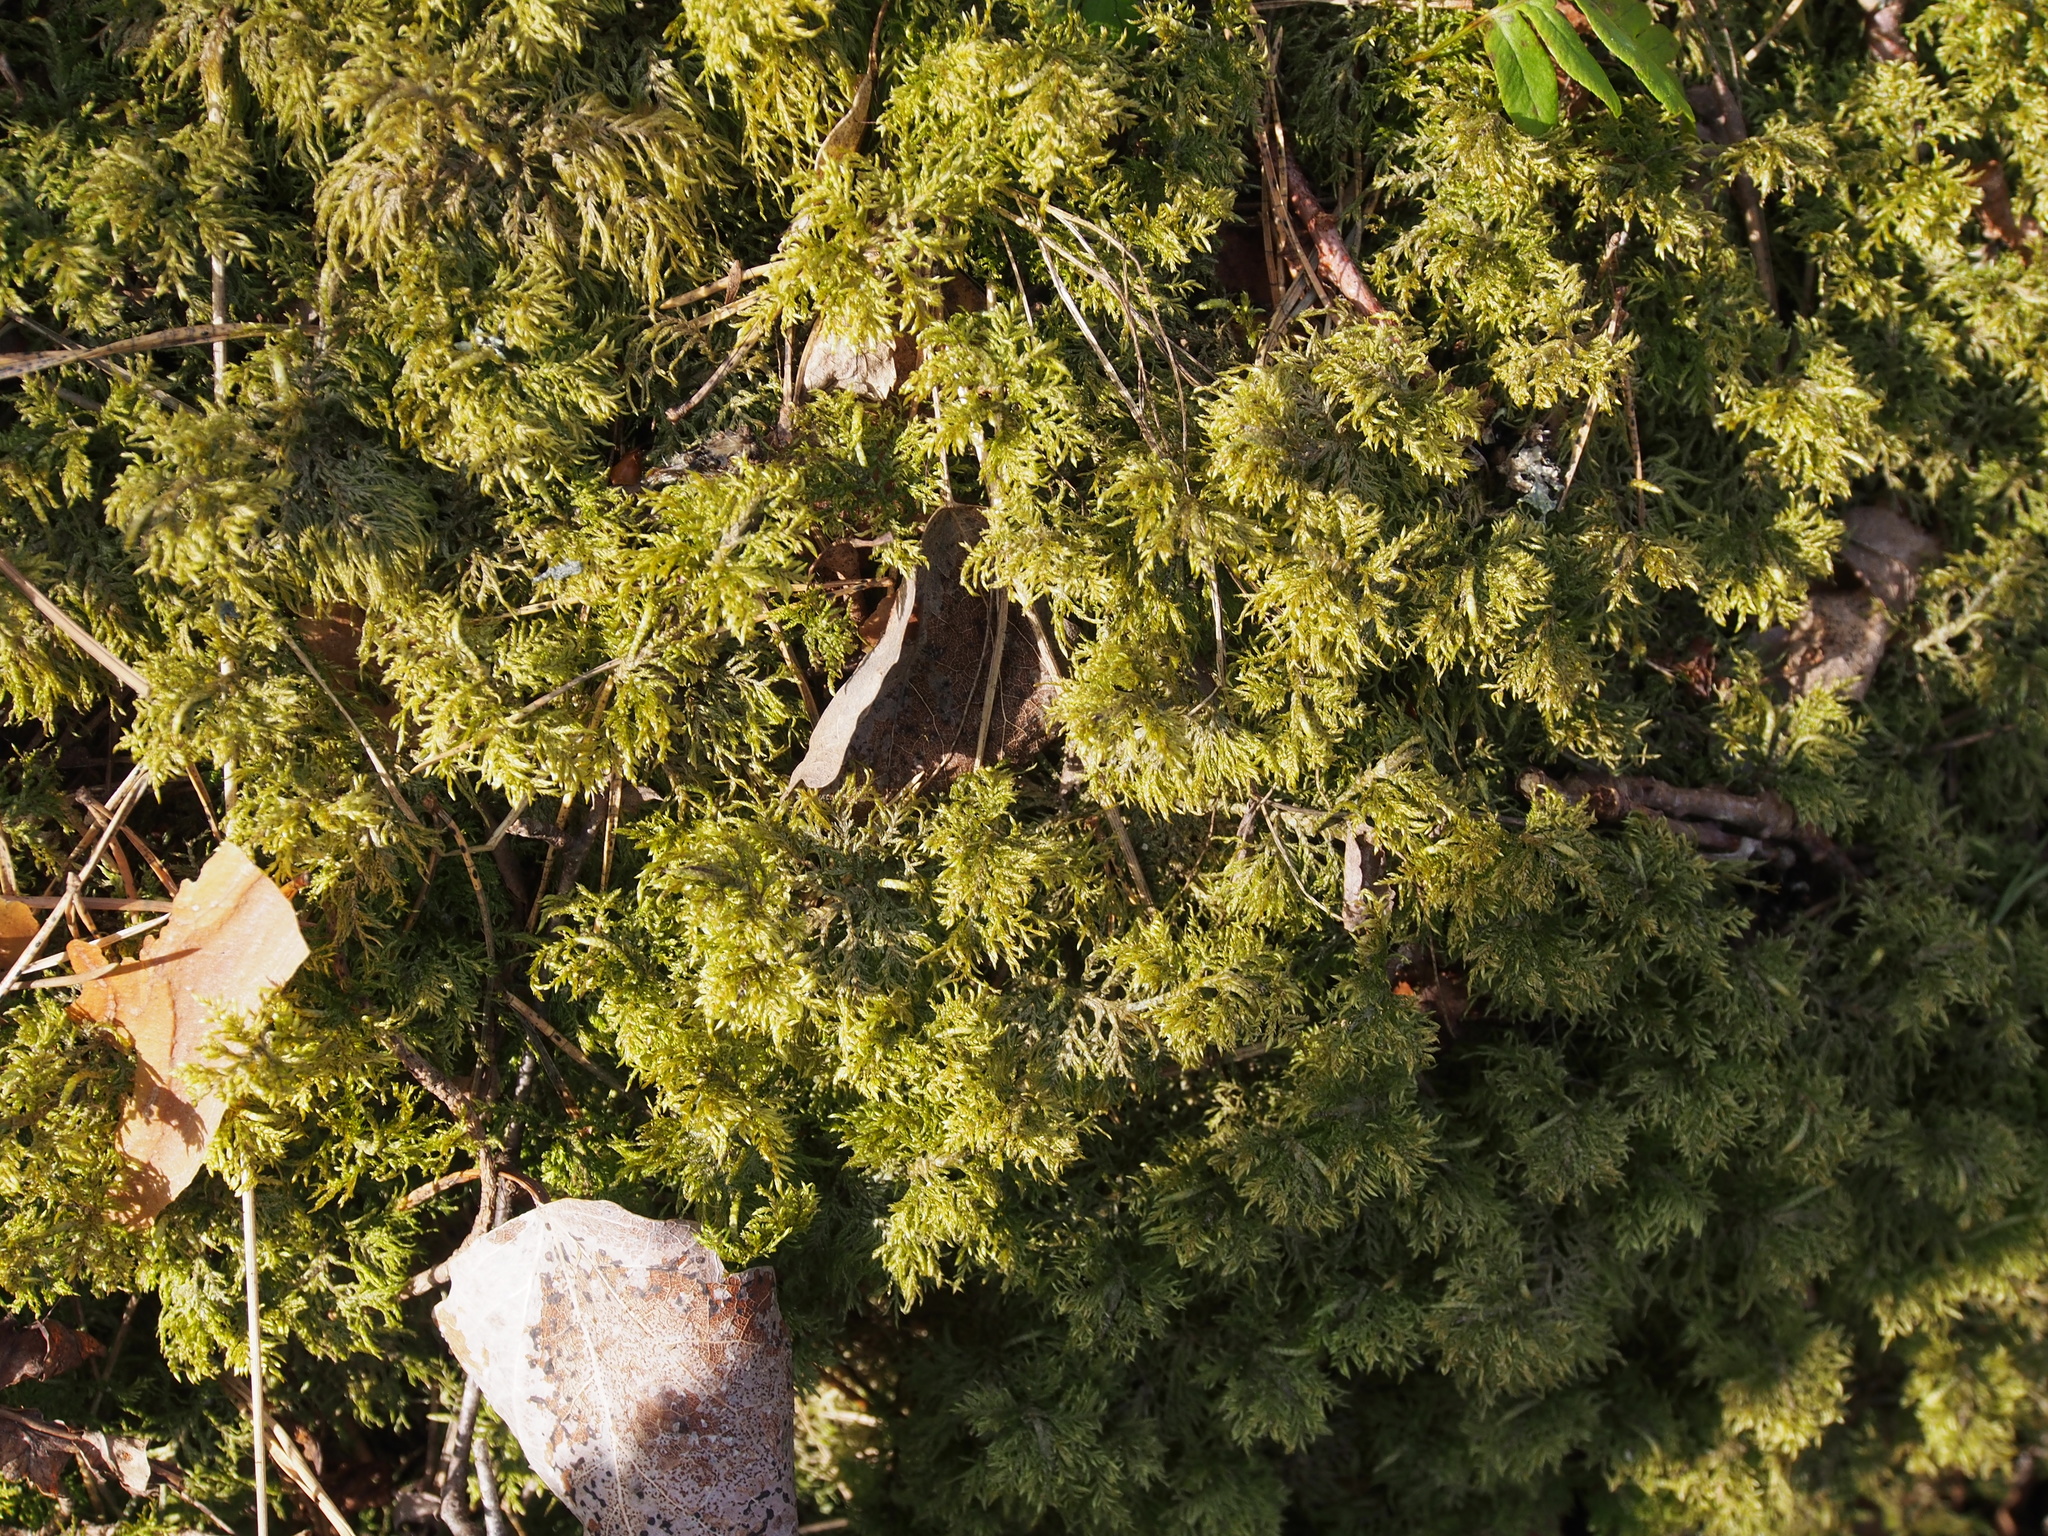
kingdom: Plantae
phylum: Bryophyta
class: Bryopsida
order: Hypnales
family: Hylocomiaceae
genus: Hylocomium
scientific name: Hylocomium splendens
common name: Stairstep moss
